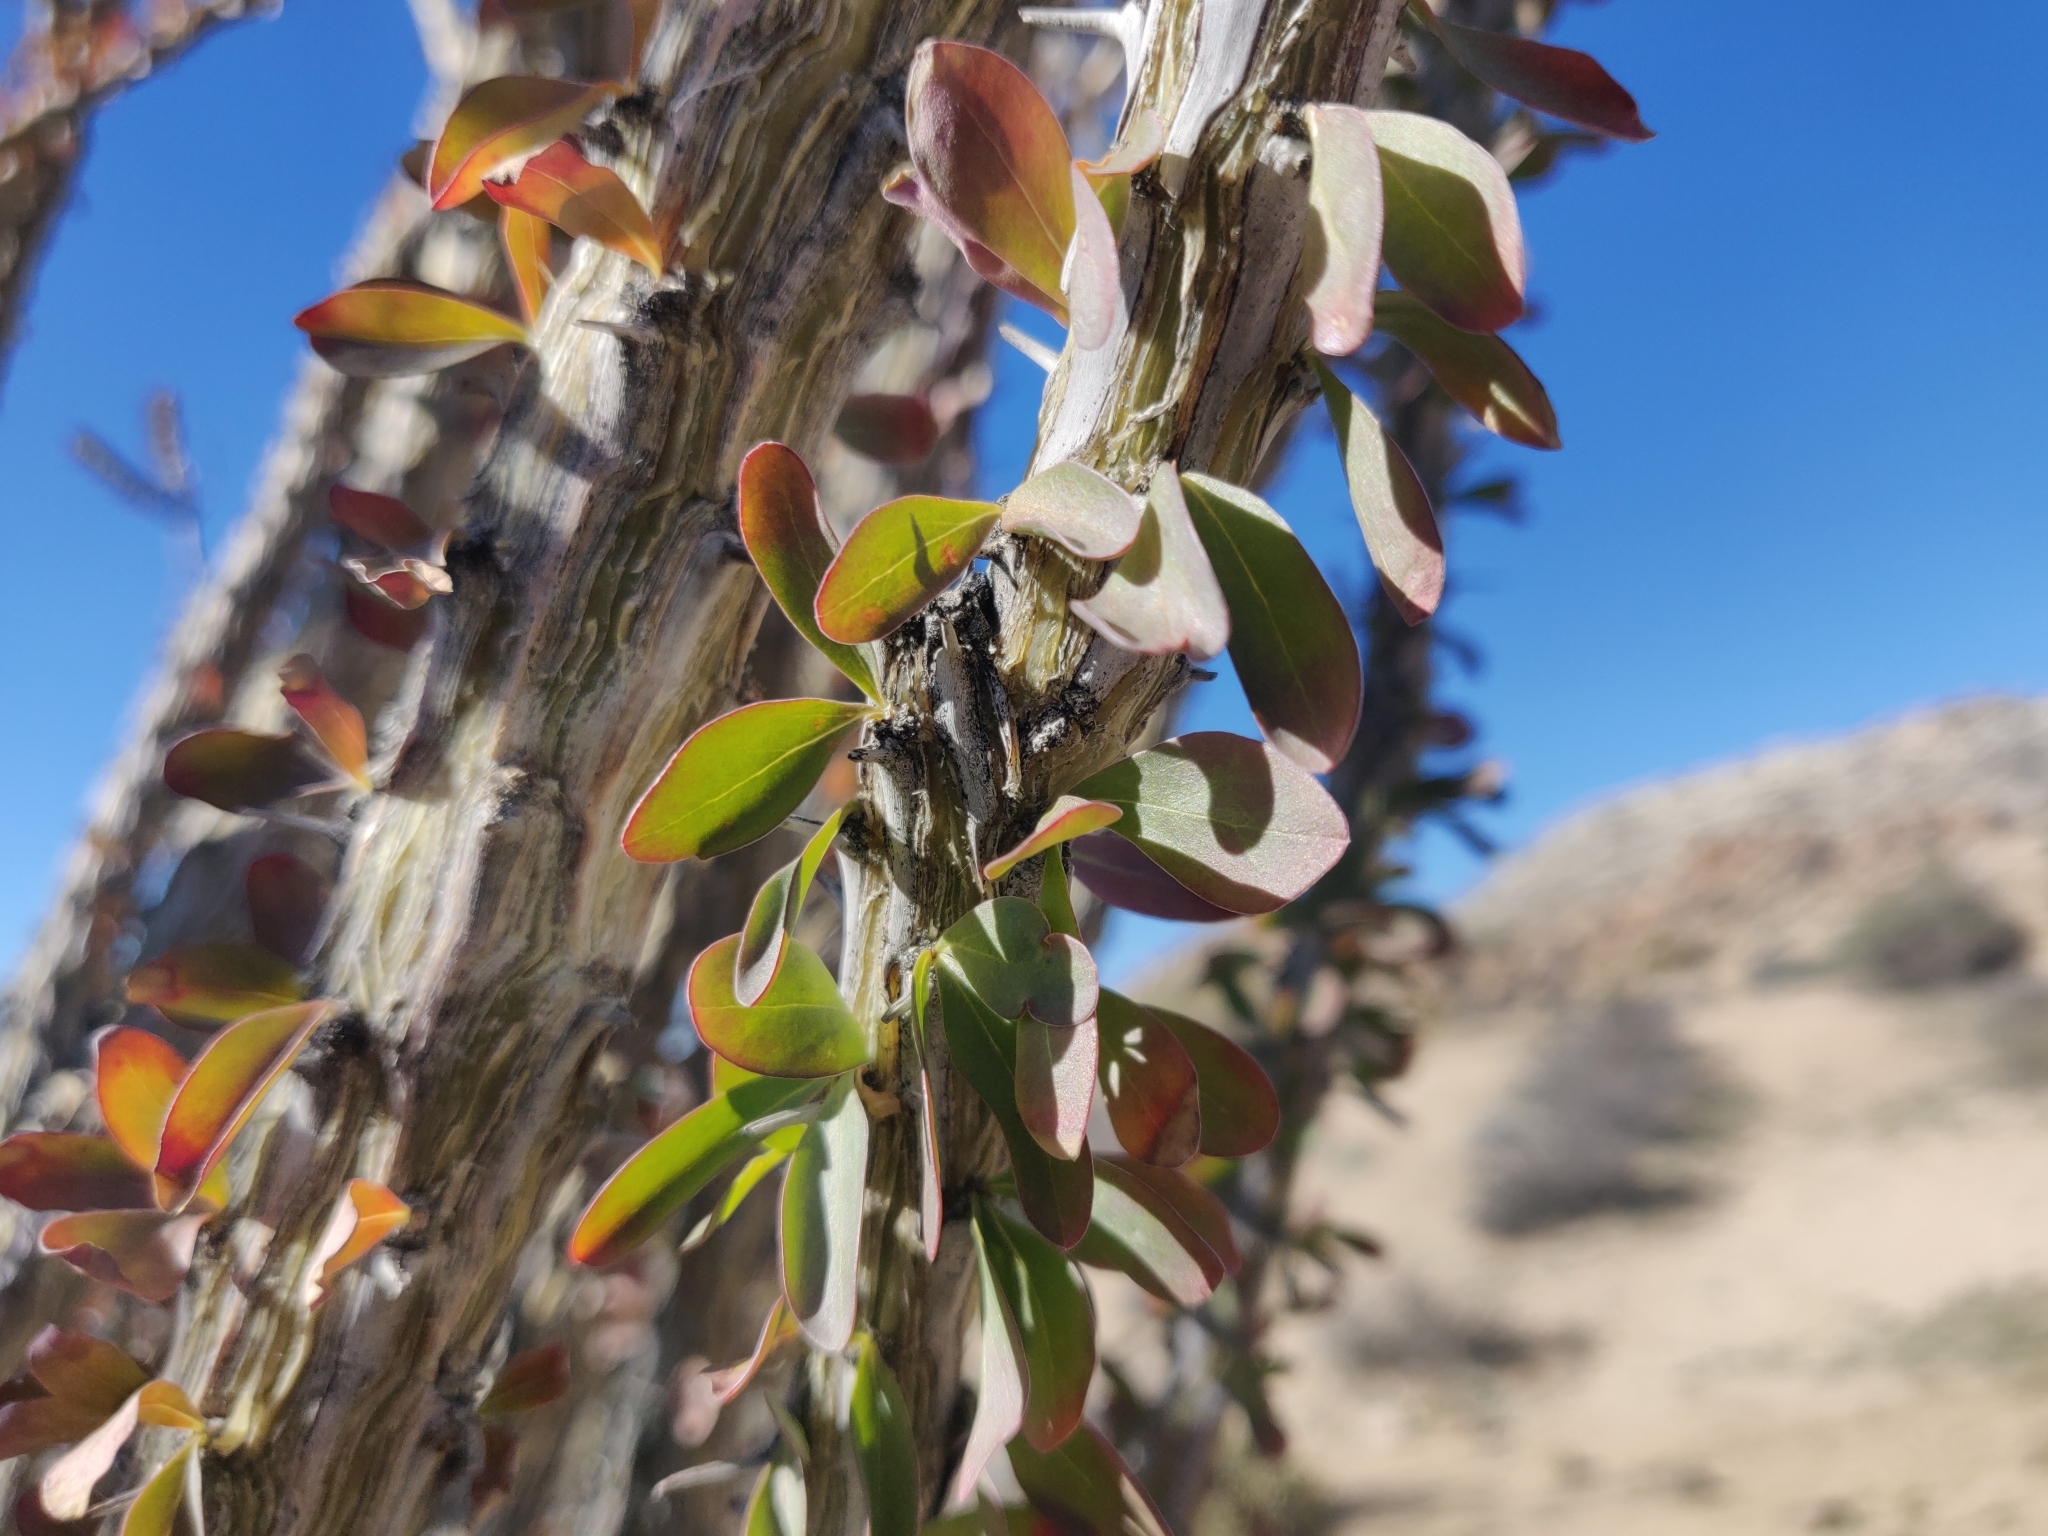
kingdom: Plantae
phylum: Tracheophyta
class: Magnoliopsida
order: Ericales
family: Fouquieriaceae
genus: Fouquieria
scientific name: Fouquieria splendens
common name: Vine-cactus
